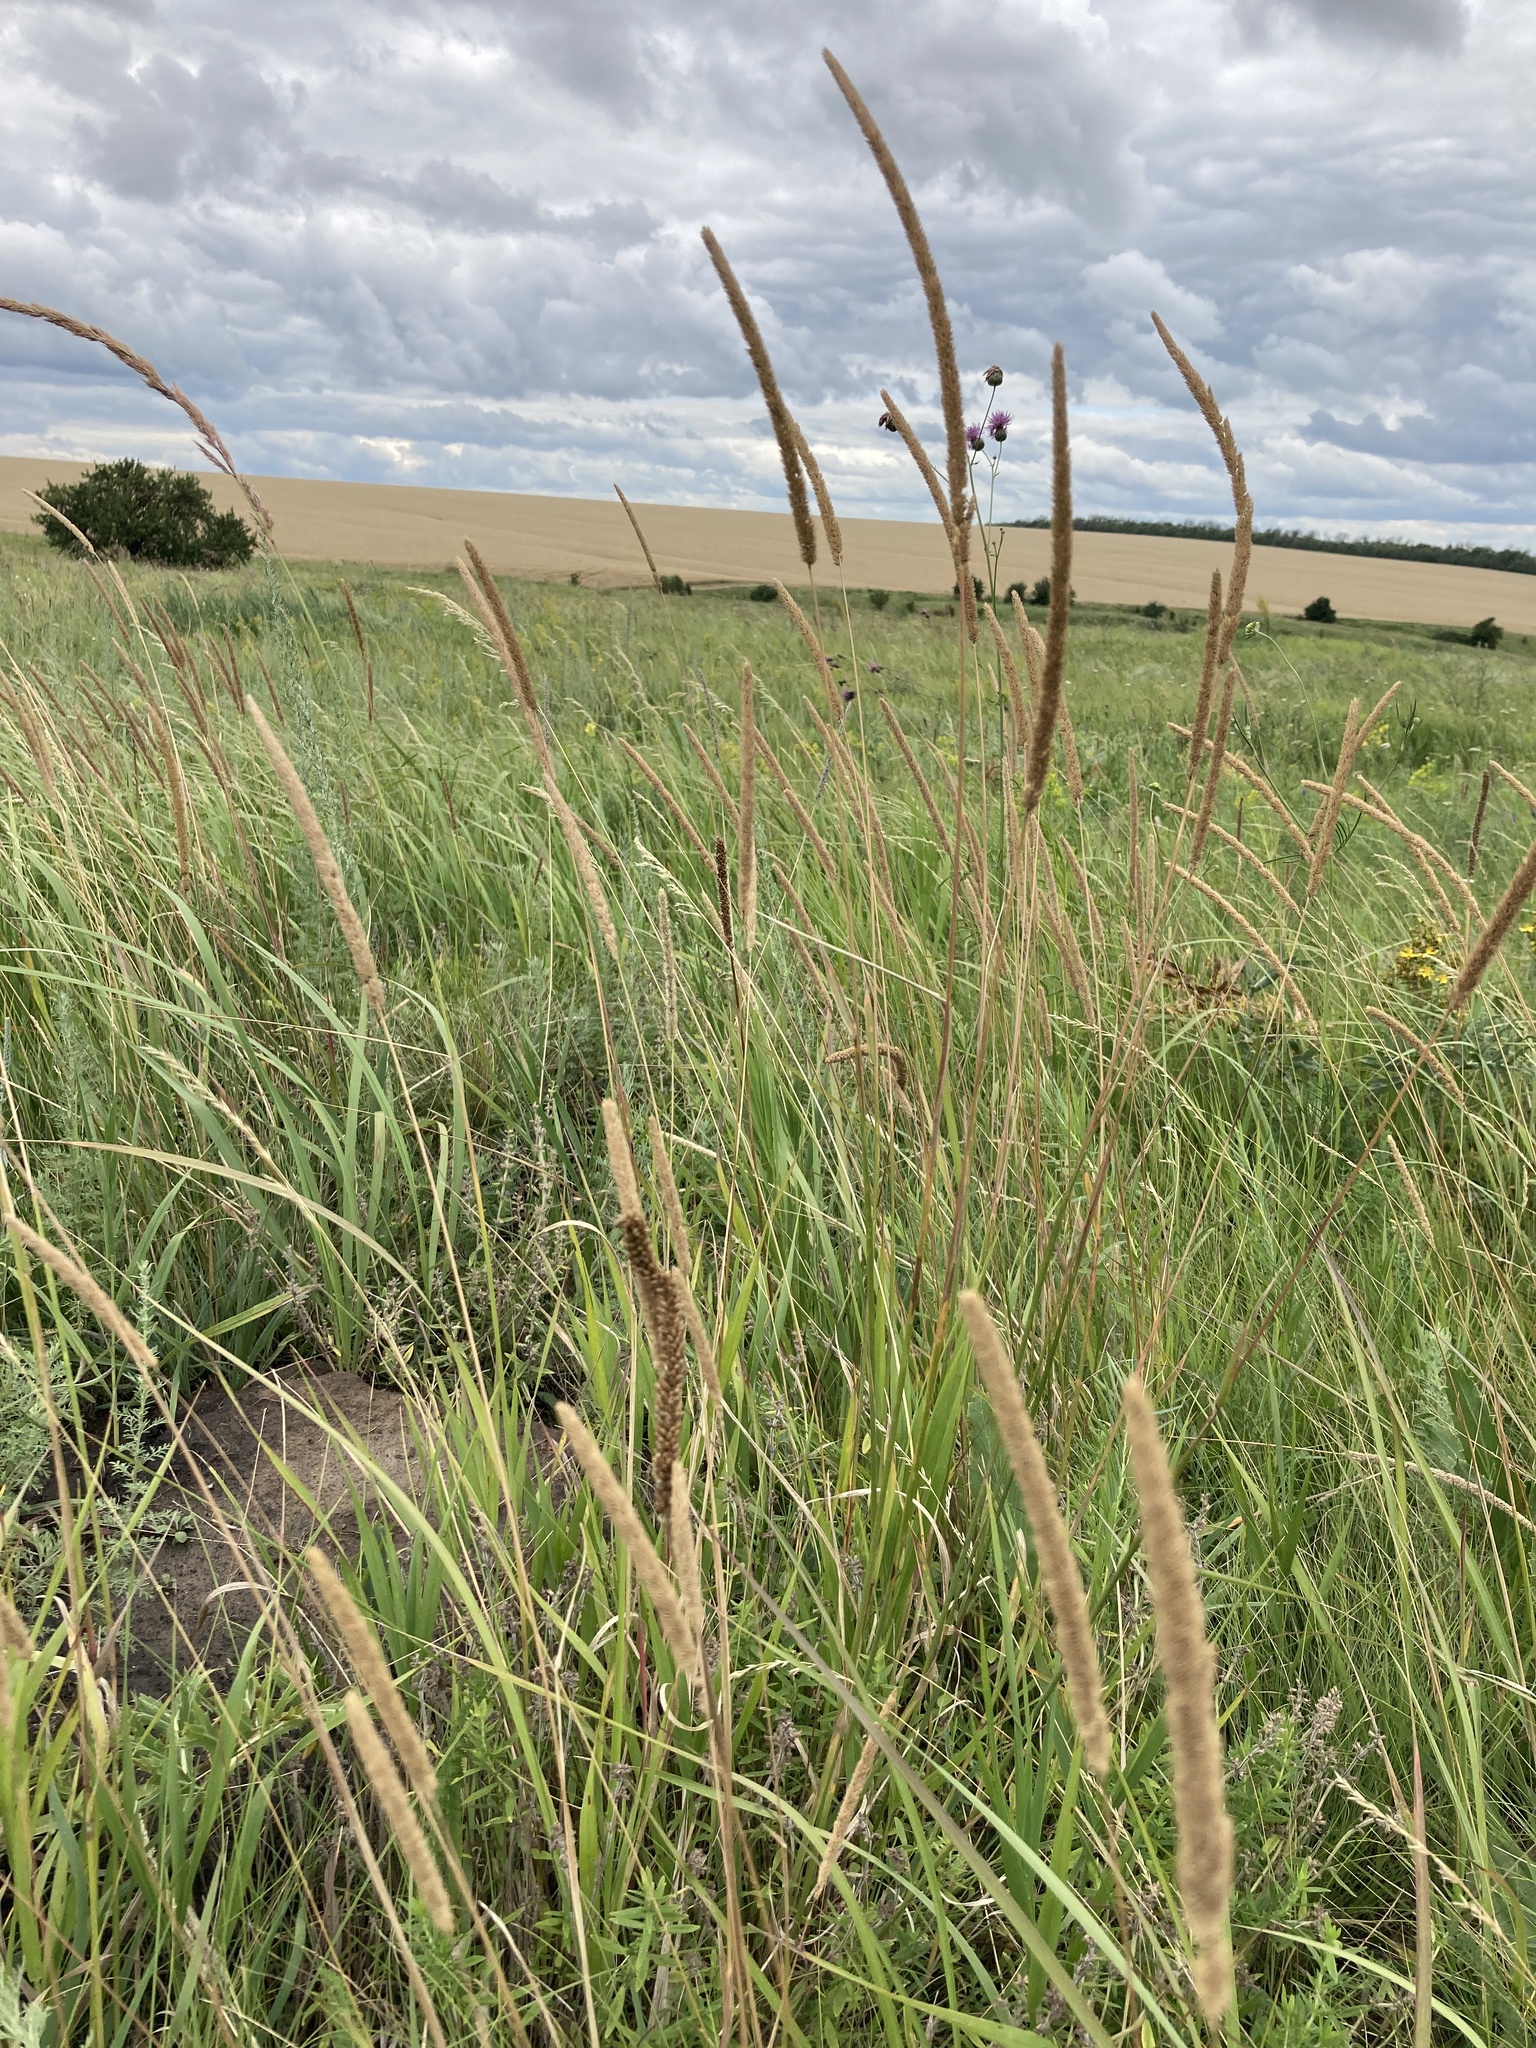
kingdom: Plantae
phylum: Tracheophyta
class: Liliopsida
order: Poales
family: Poaceae
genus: Phleum
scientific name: Phleum phleoides
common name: Purple-stem cat's-tail
